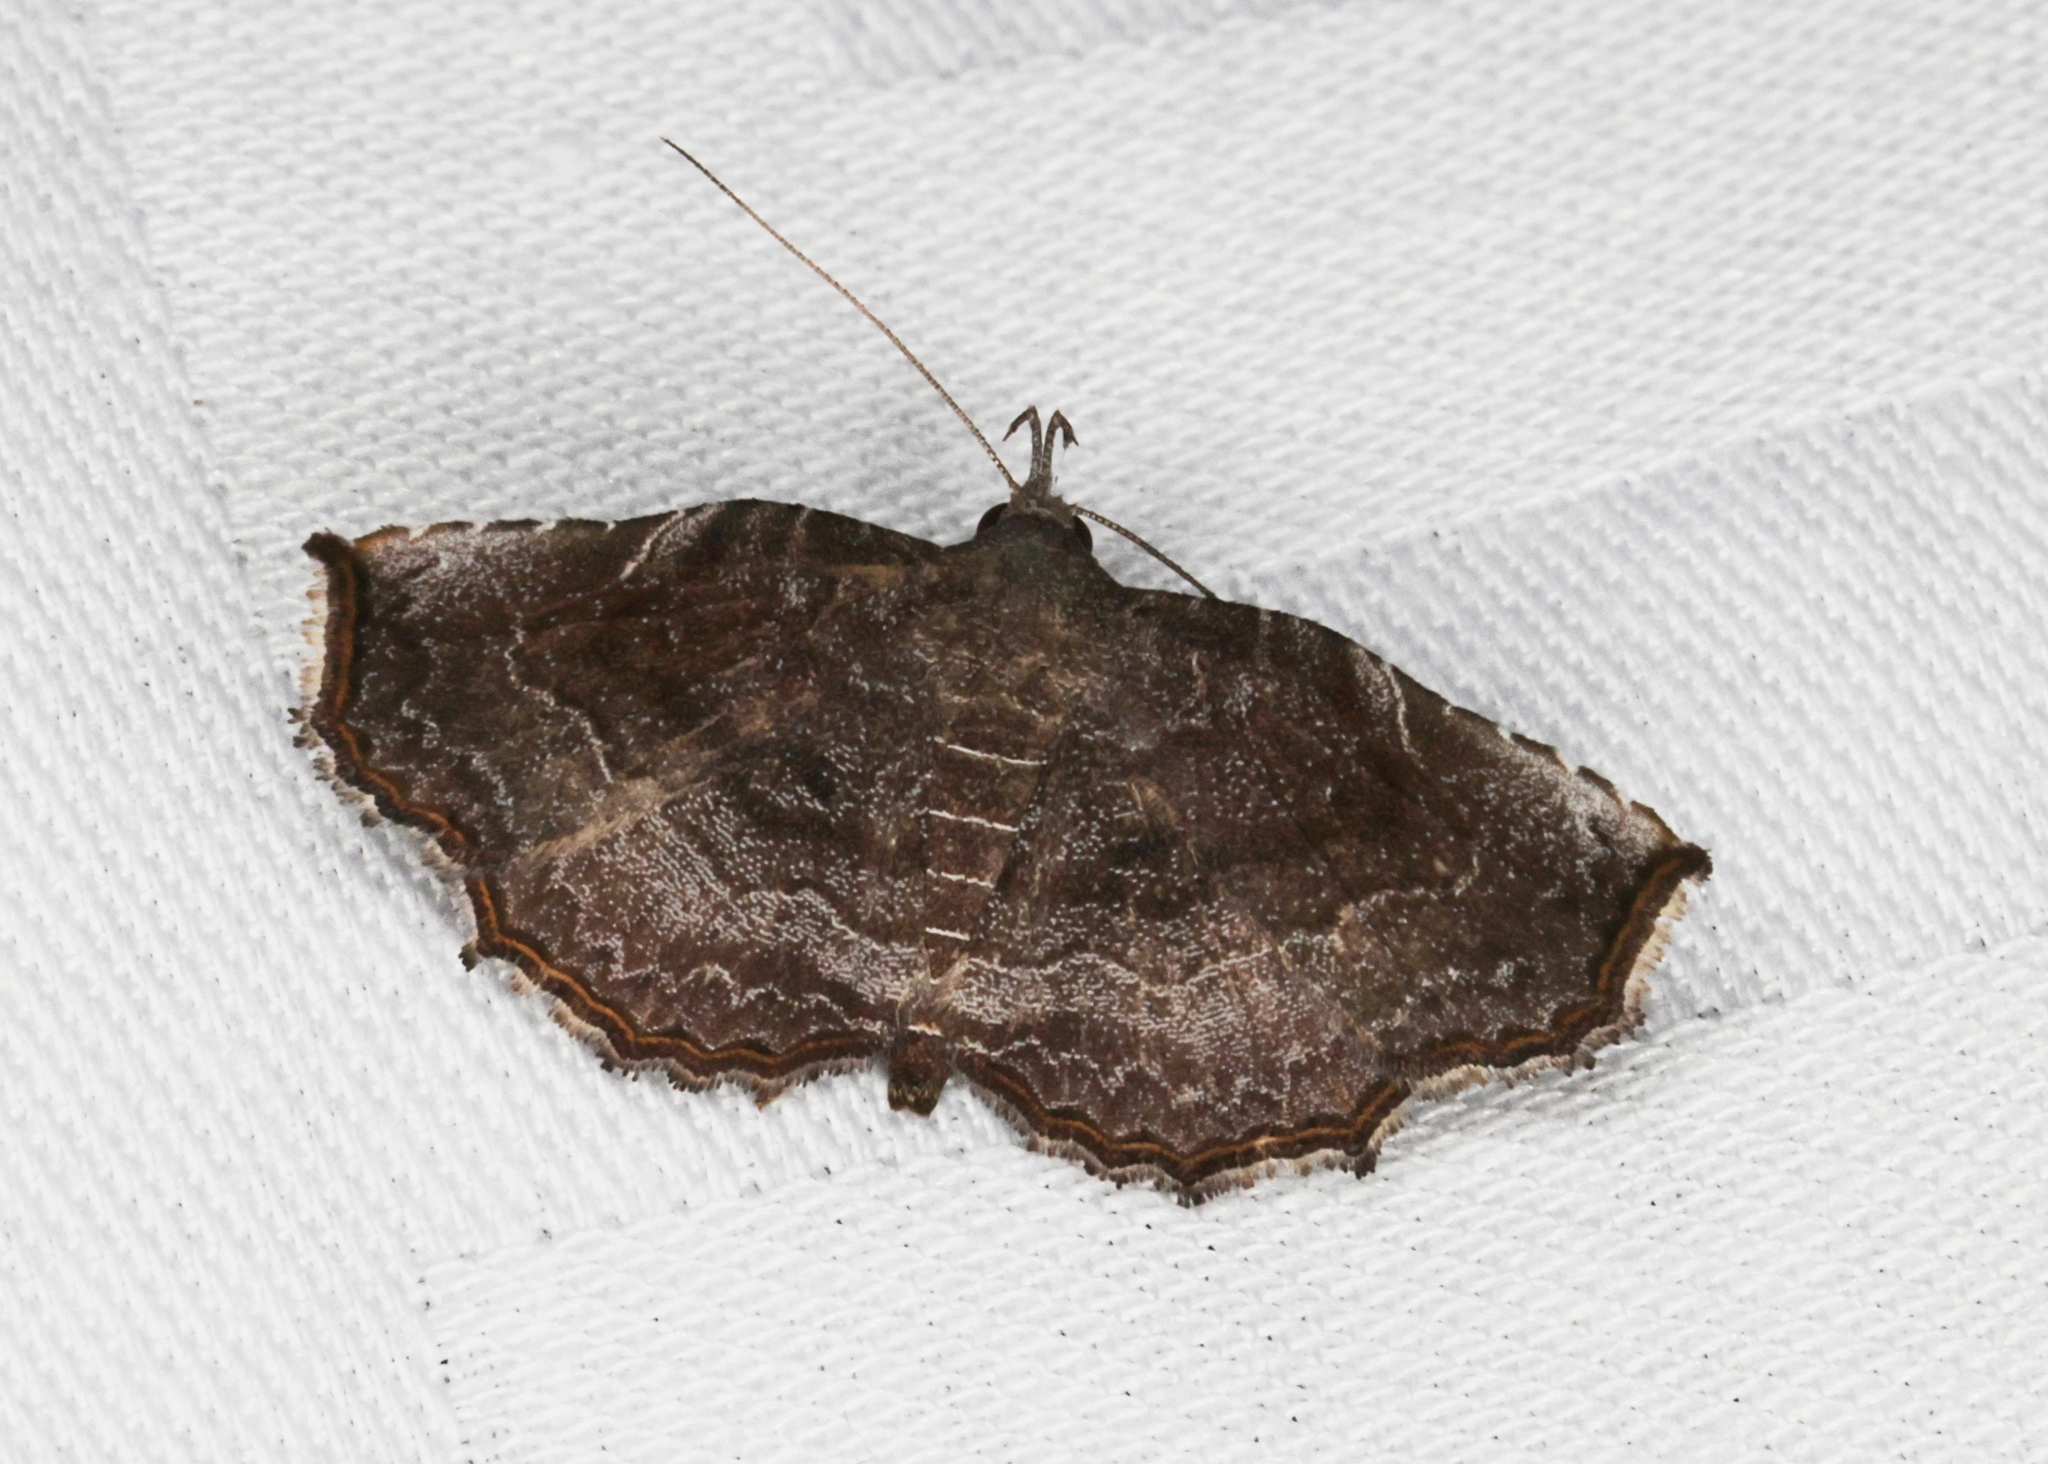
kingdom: Animalia
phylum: Arthropoda
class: Insecta
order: Lepidoptera
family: Erebidae
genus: Nagadeba
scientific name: Nagadeba indecoralis
